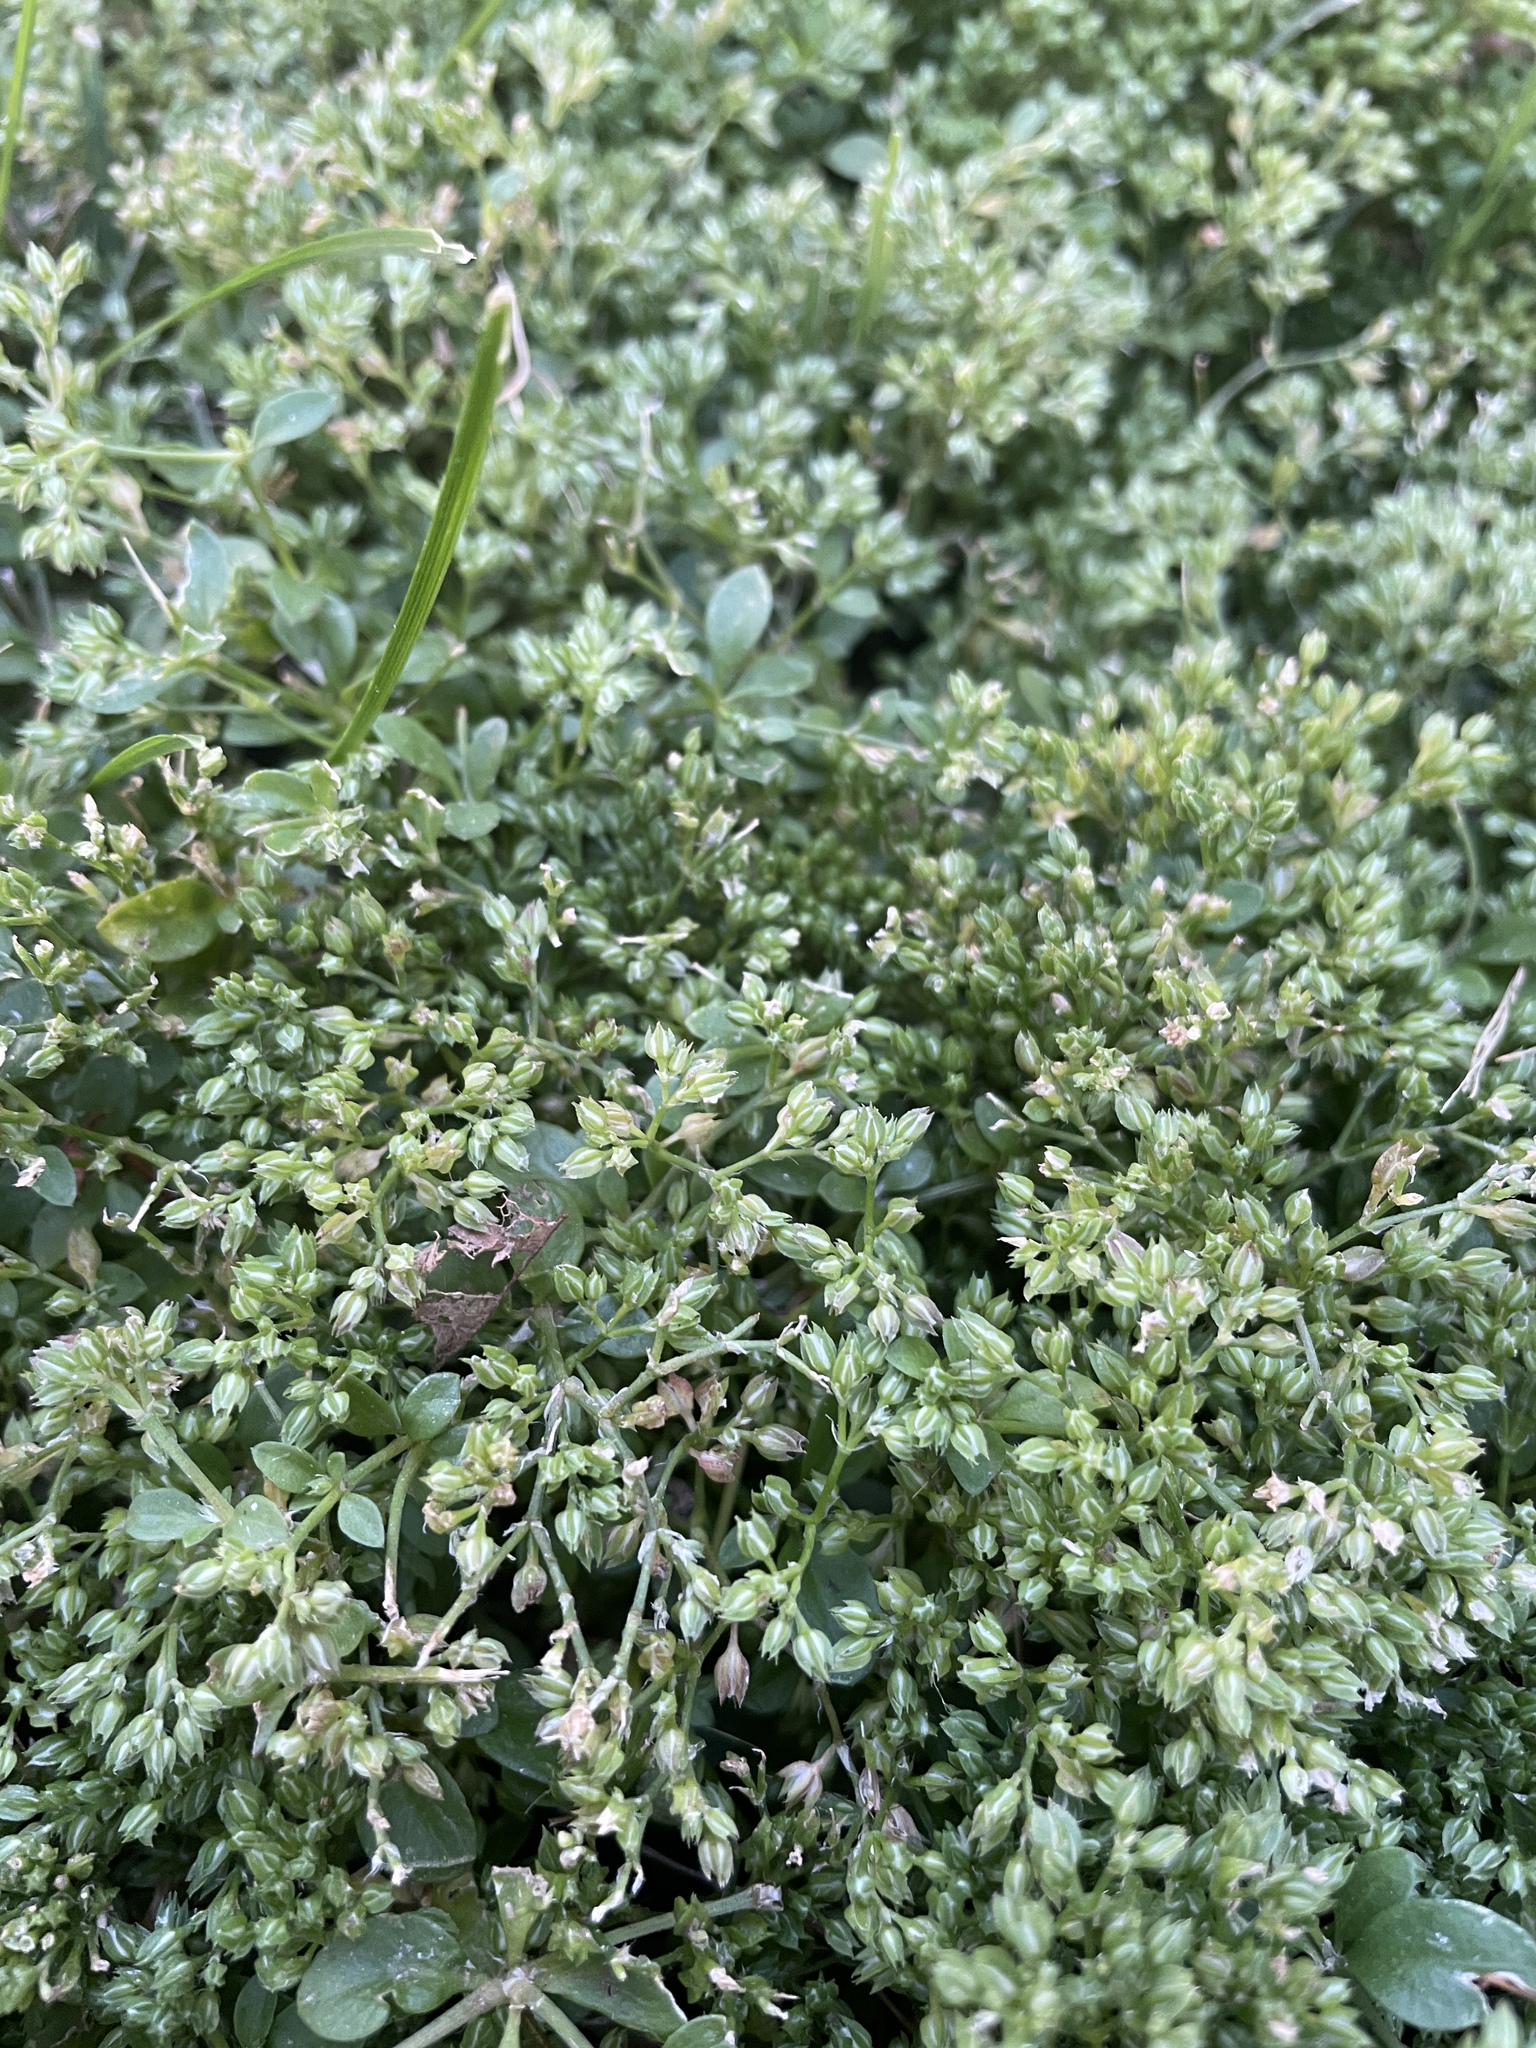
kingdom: Plantae
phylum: Tracheophyta
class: Magnoliopsida
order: Caryophyllales
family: Caryophyllaceae
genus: Polycarpon
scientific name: Polycarpon tetraphyllum
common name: Four-leaved all-seed
